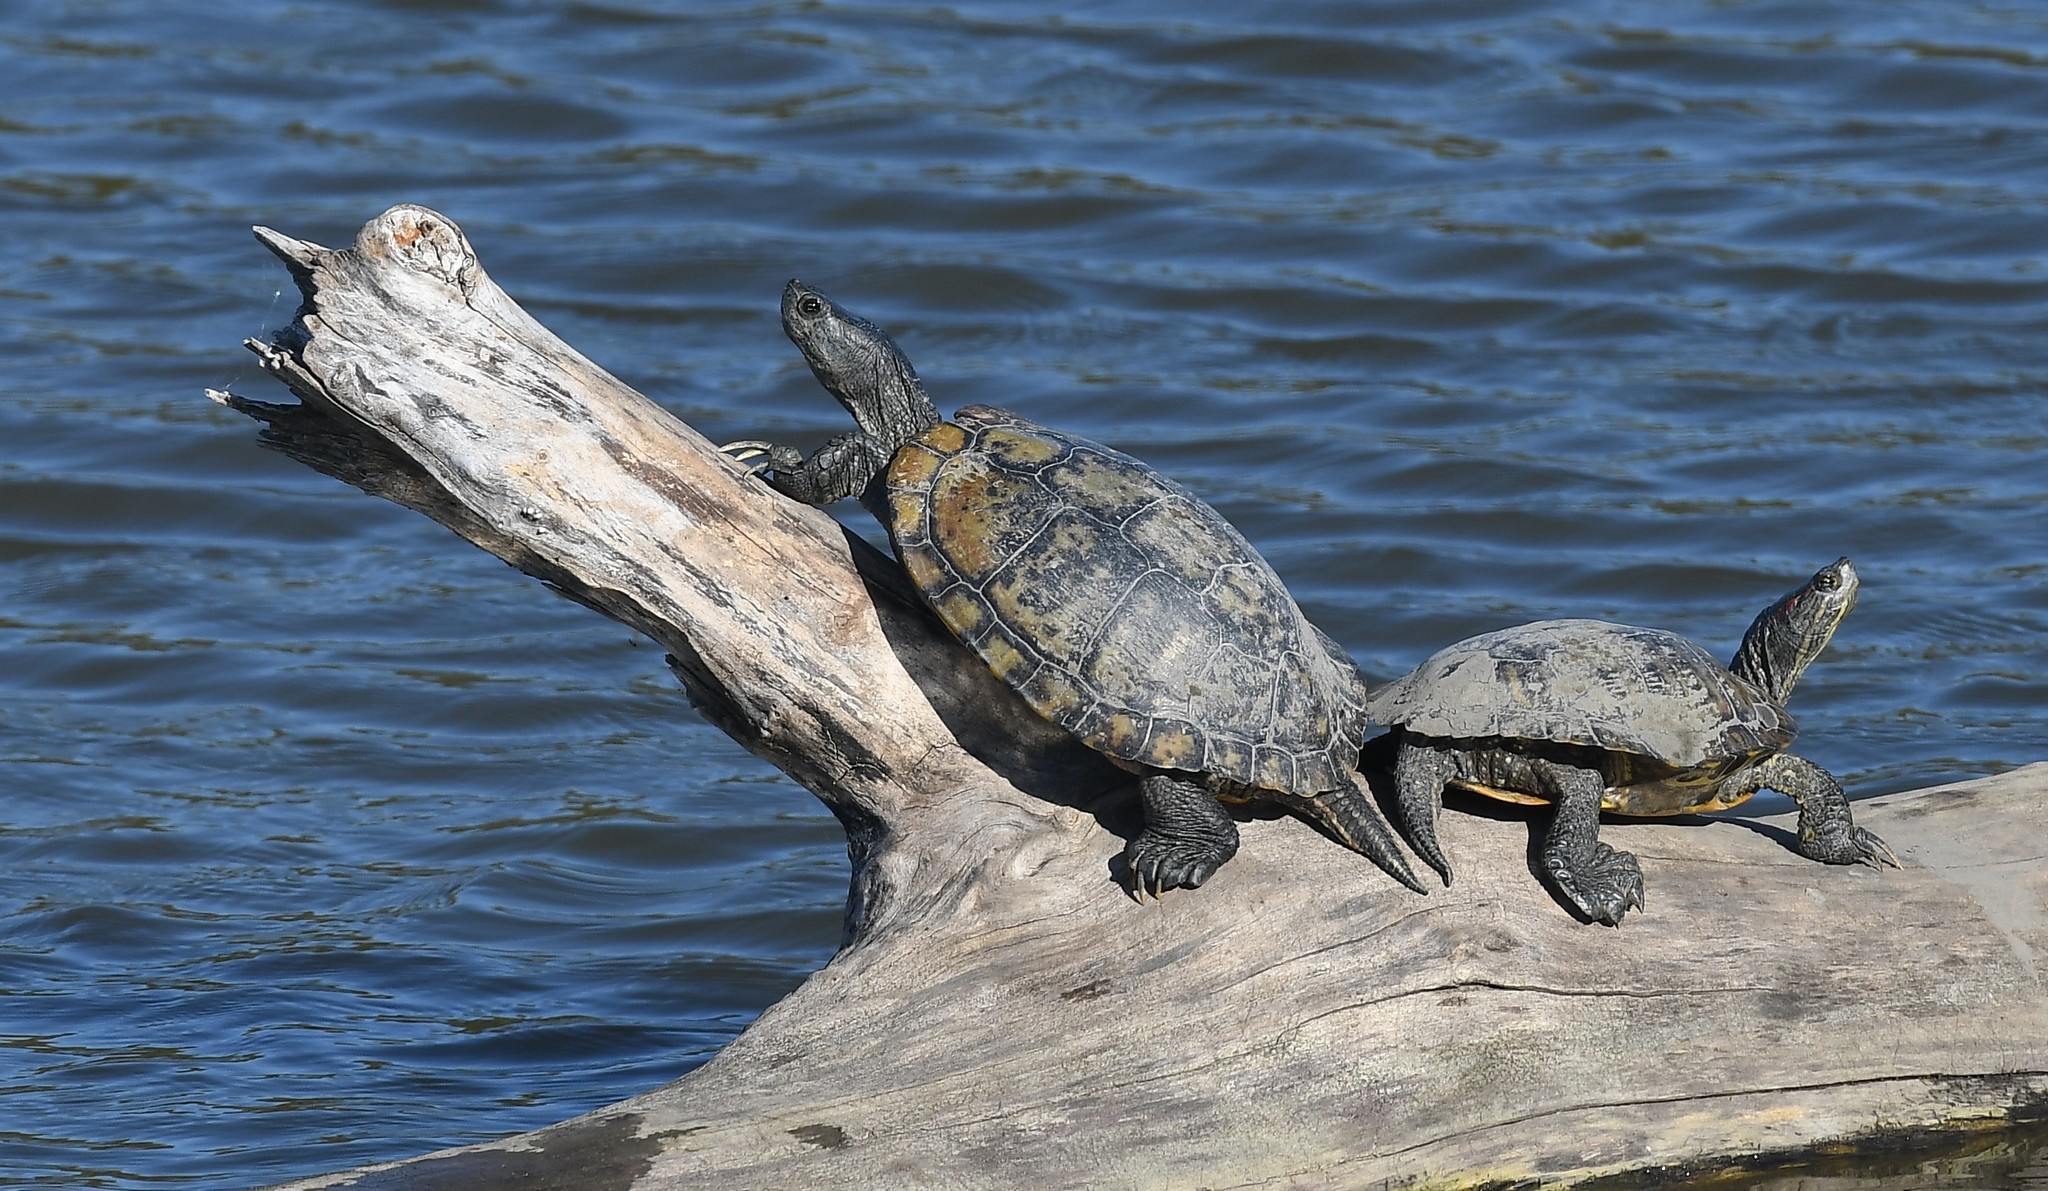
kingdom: Animalia
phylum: Chordata
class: Testudines
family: Emydidae
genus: Trachemys
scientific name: Trachemys scripta
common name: Slider
